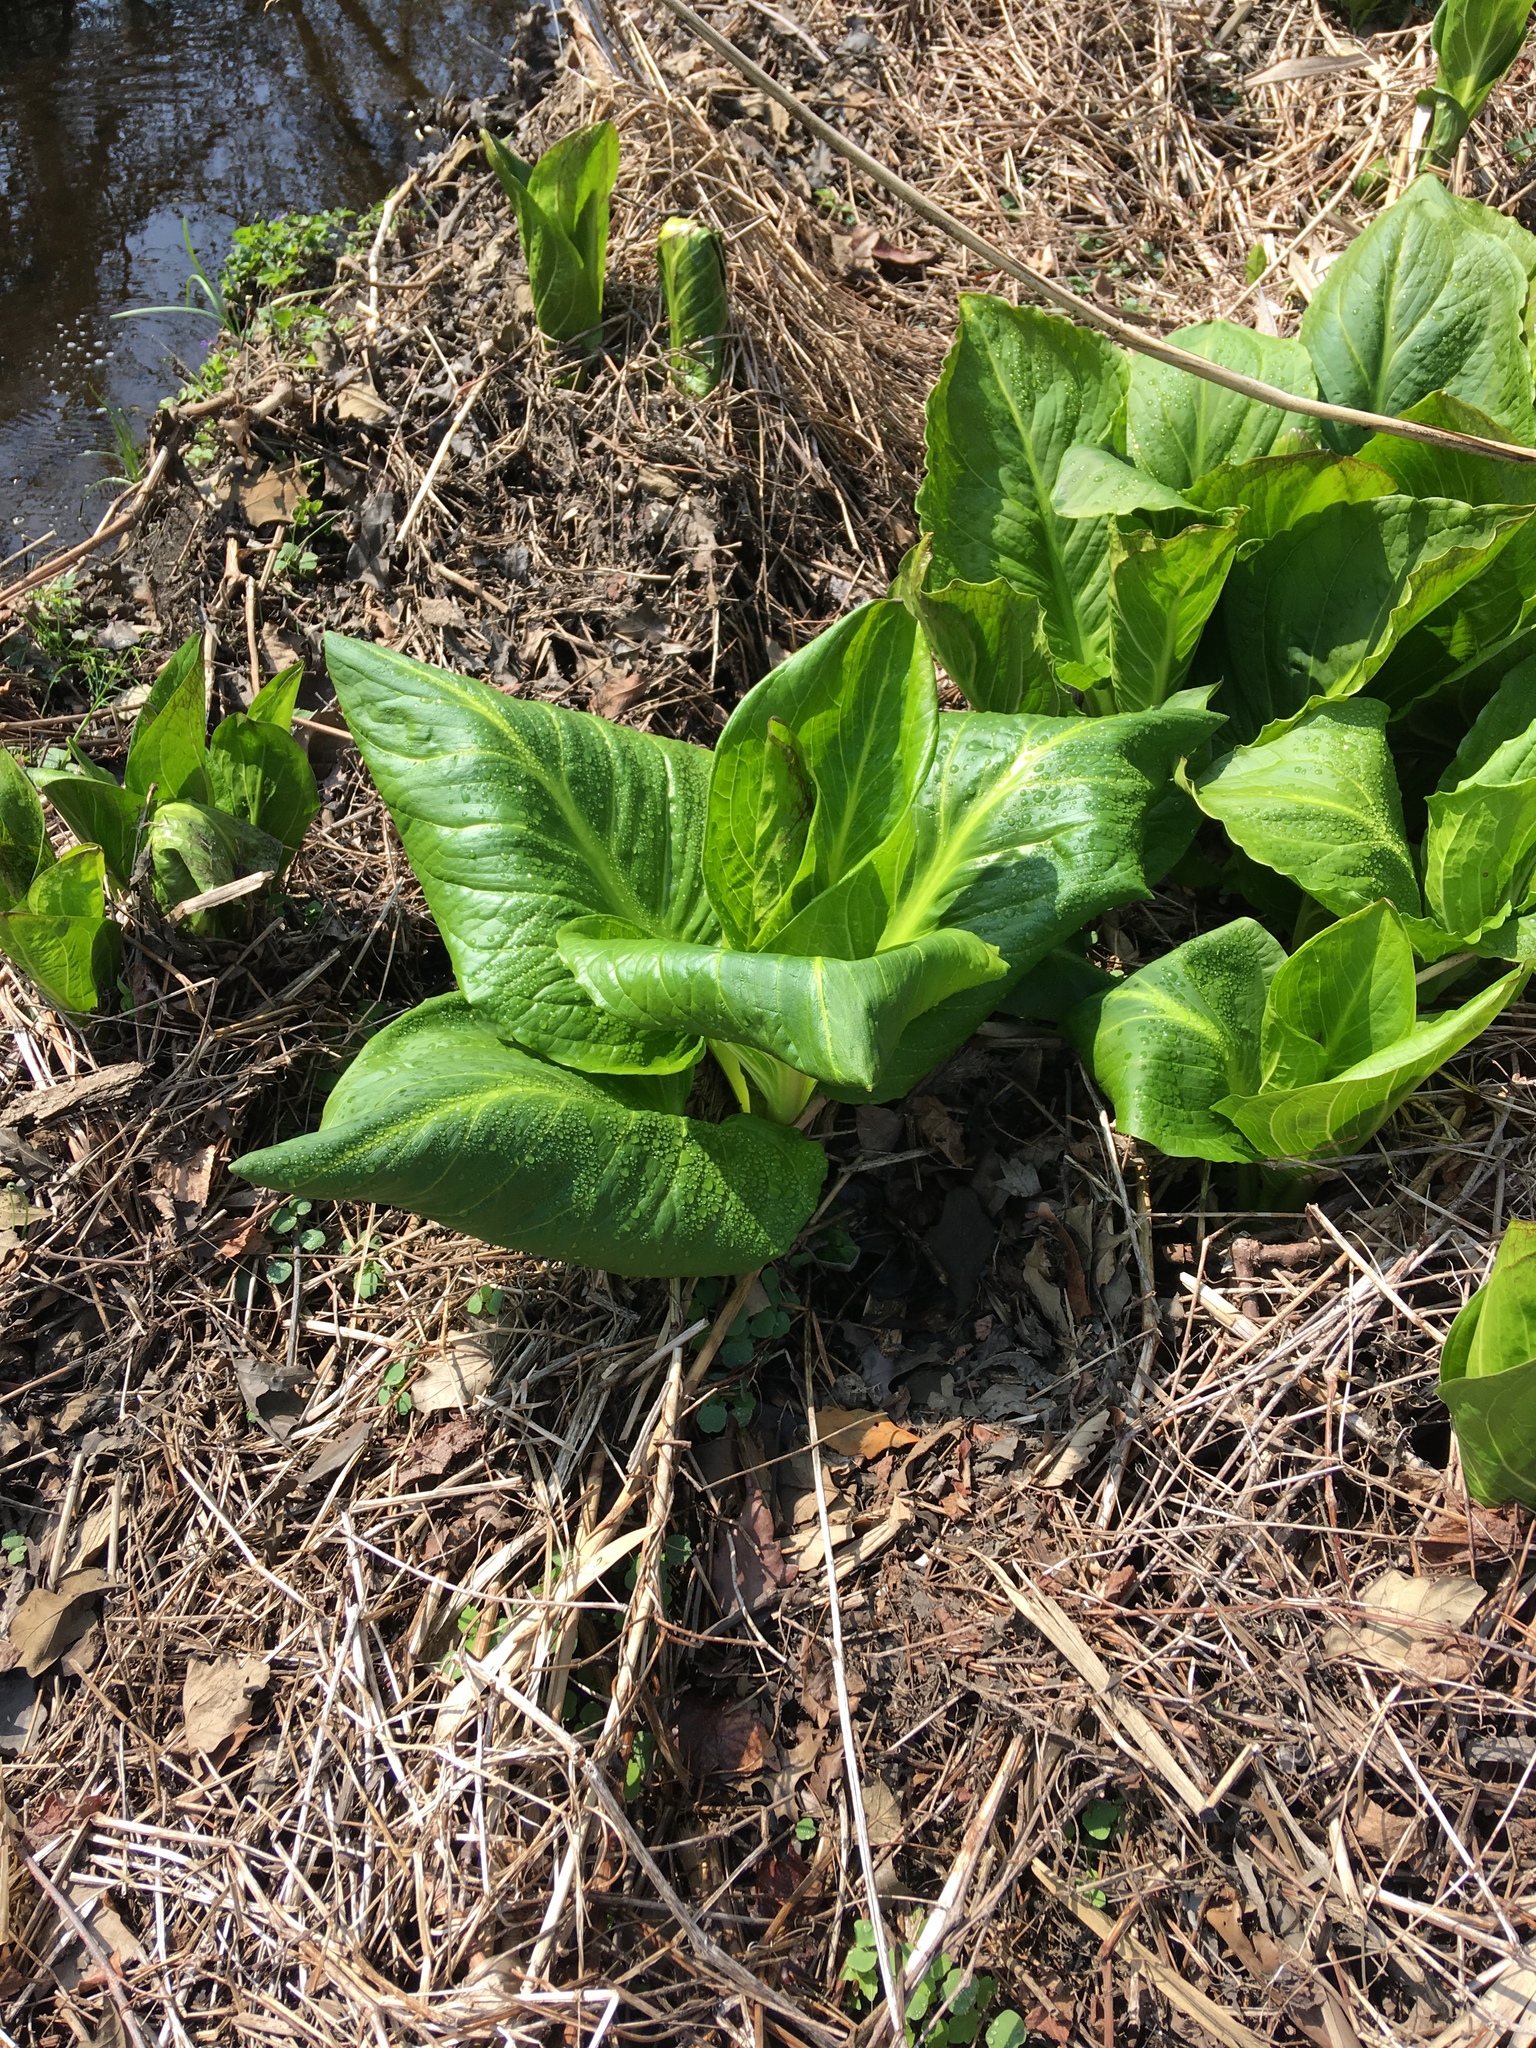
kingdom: Plantae
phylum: Tracheophyta
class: Liliopsida
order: Alismatales
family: Araceae
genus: Symplocarpus
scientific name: Symplocarpus foetidus
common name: Eastern skunk cabbage
